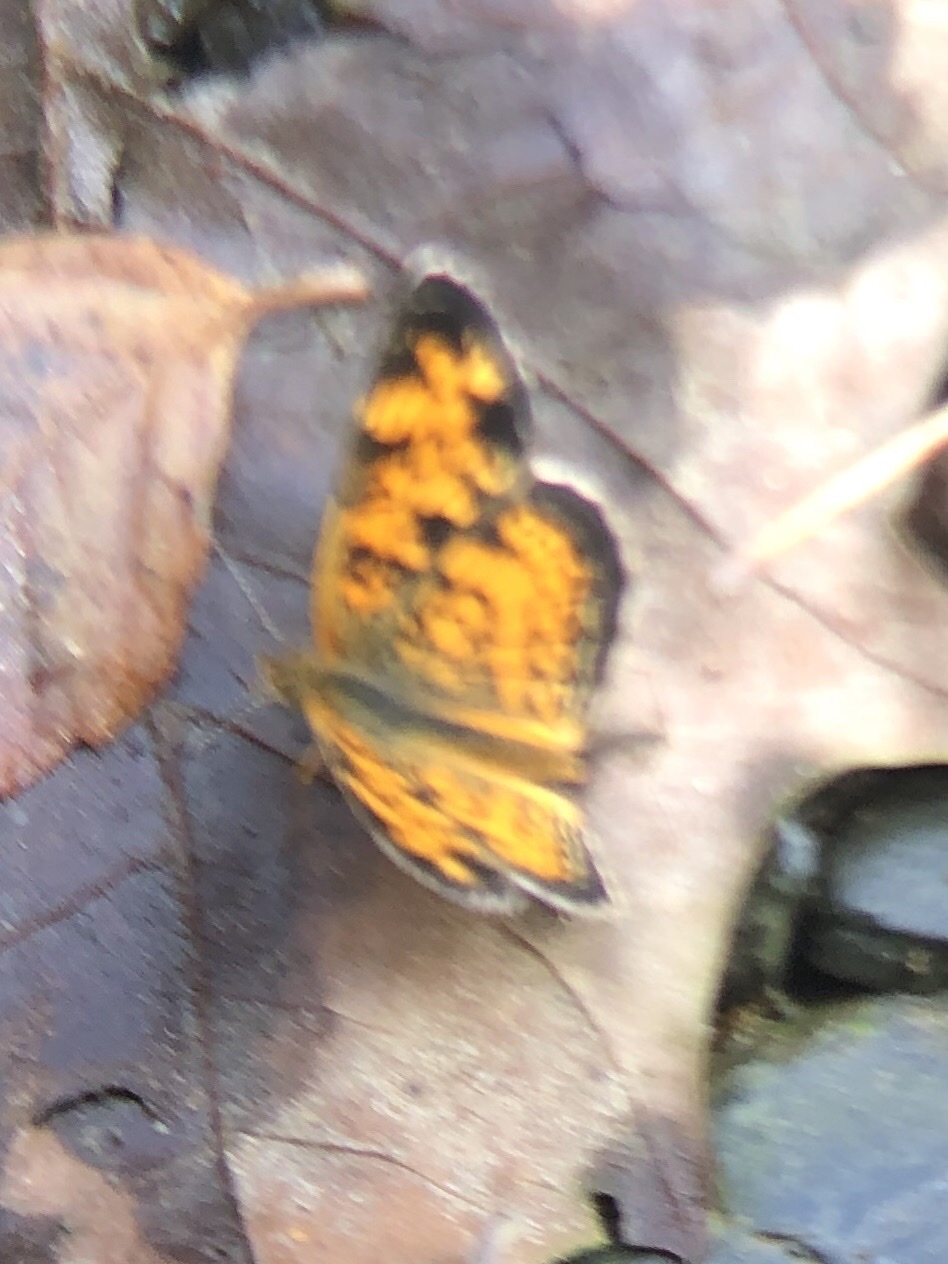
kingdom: Animalia
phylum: Arthropoda
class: Insecta
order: Lepidoptera
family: Nymphalidae
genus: Phyciodes
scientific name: Phyciodes tharos
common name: Pearl crescent
